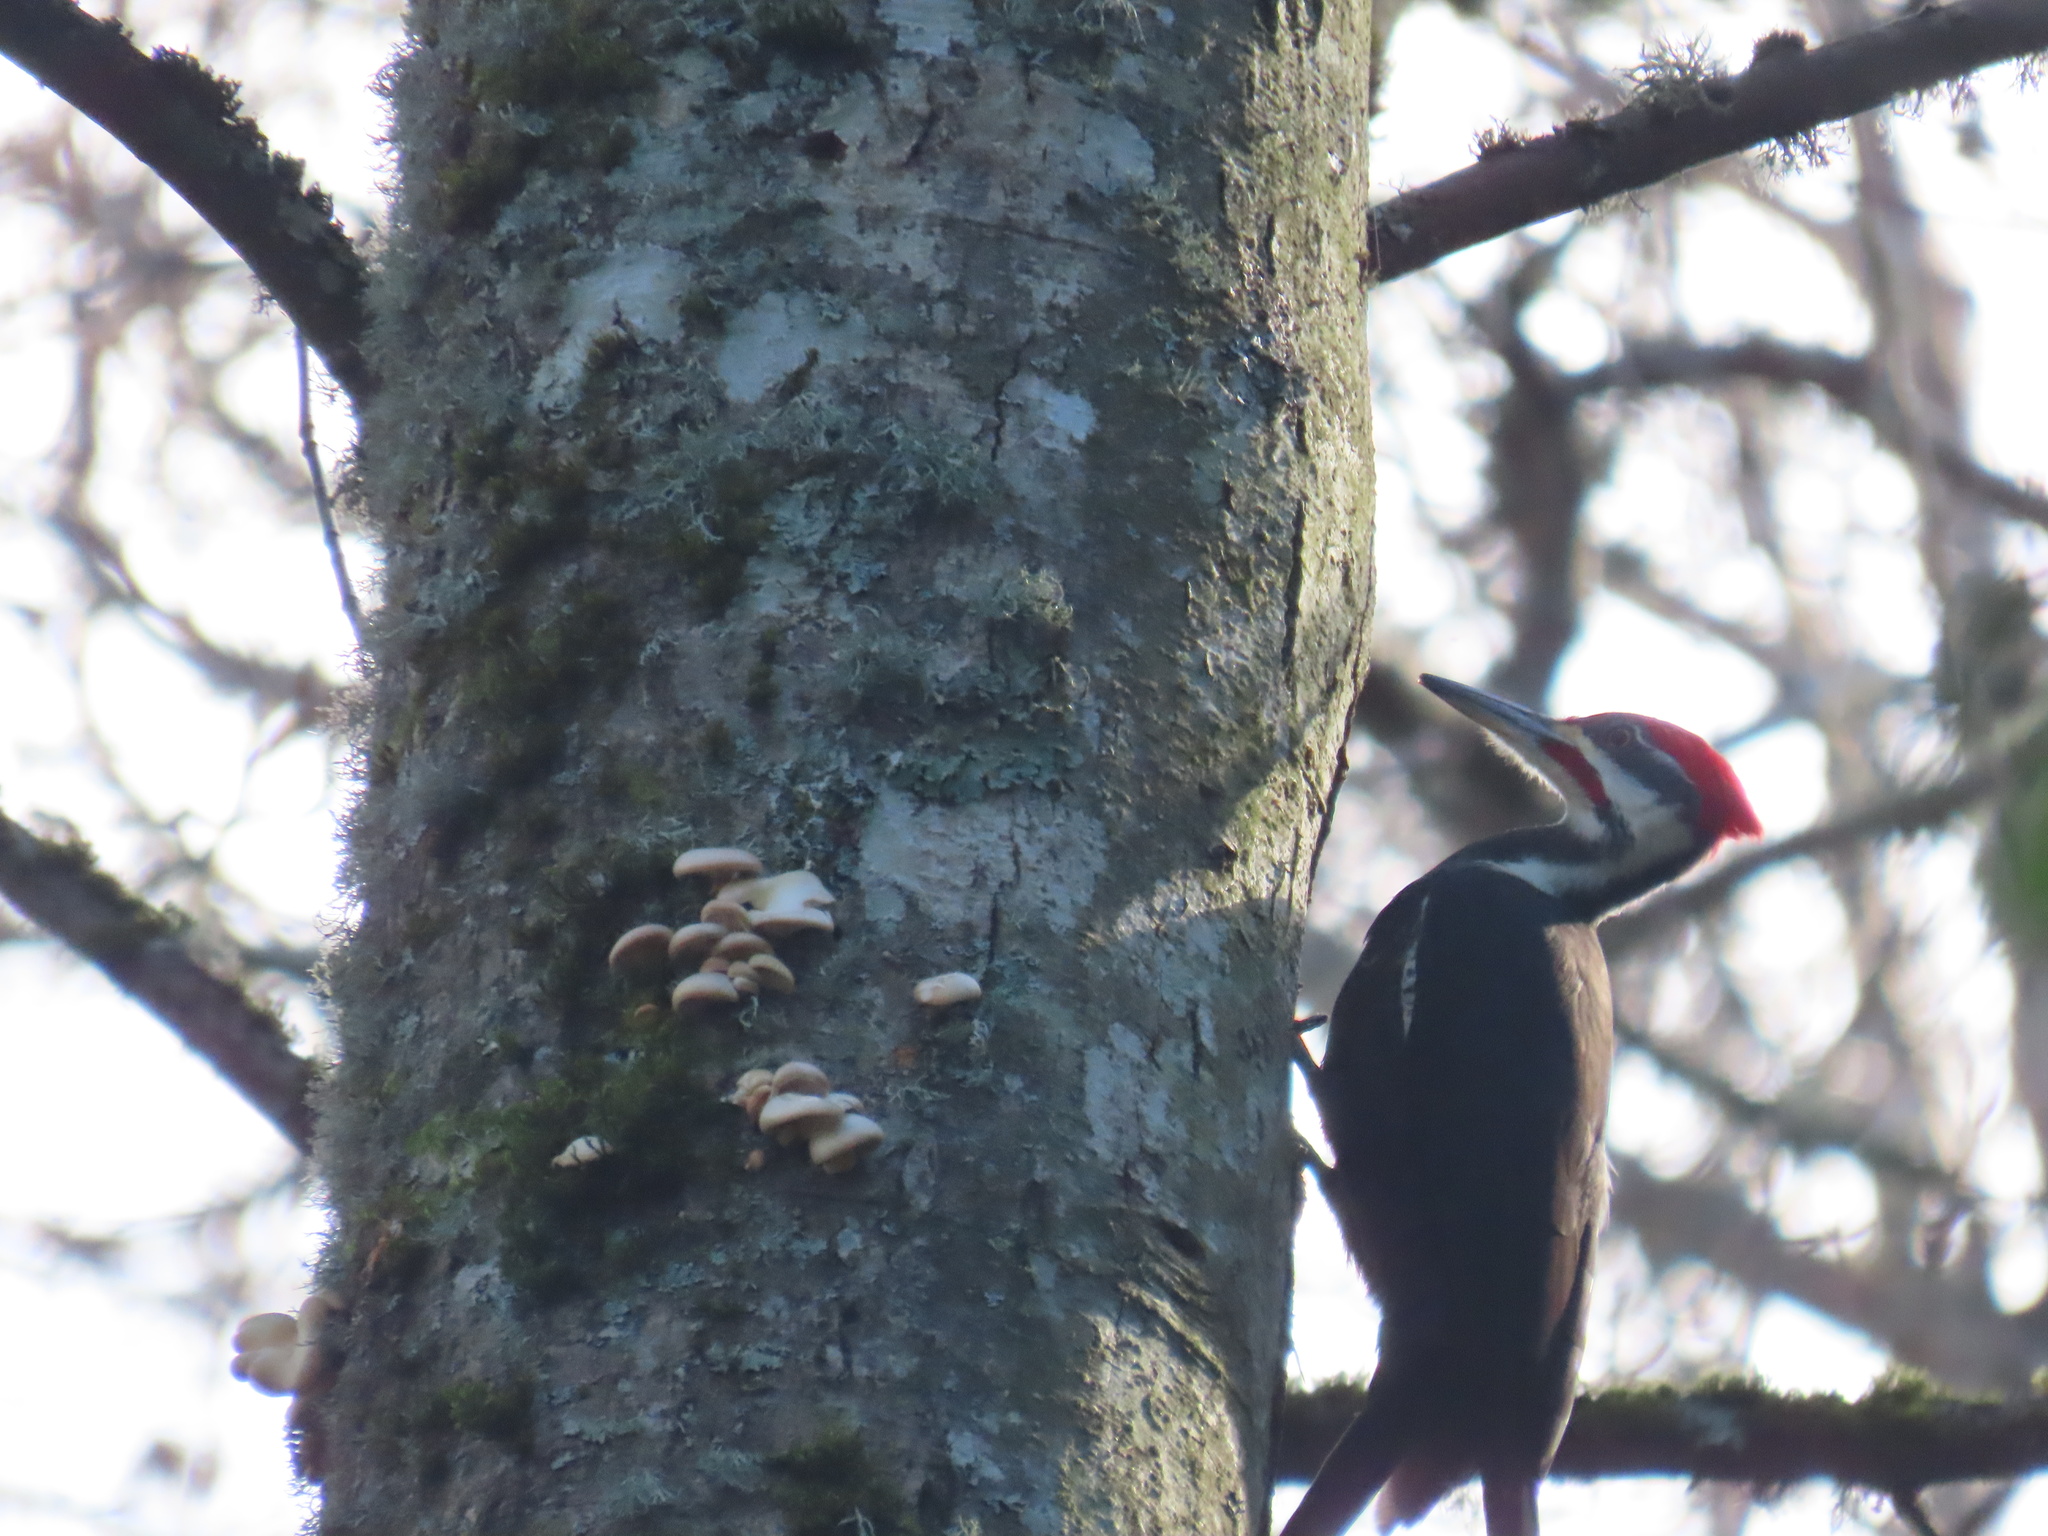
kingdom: Animalia
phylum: Chordata
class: Aves
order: Piciformes
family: Picidae
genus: Dryocopus
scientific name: Dryocopus pileatus
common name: Pileated woodpecker
